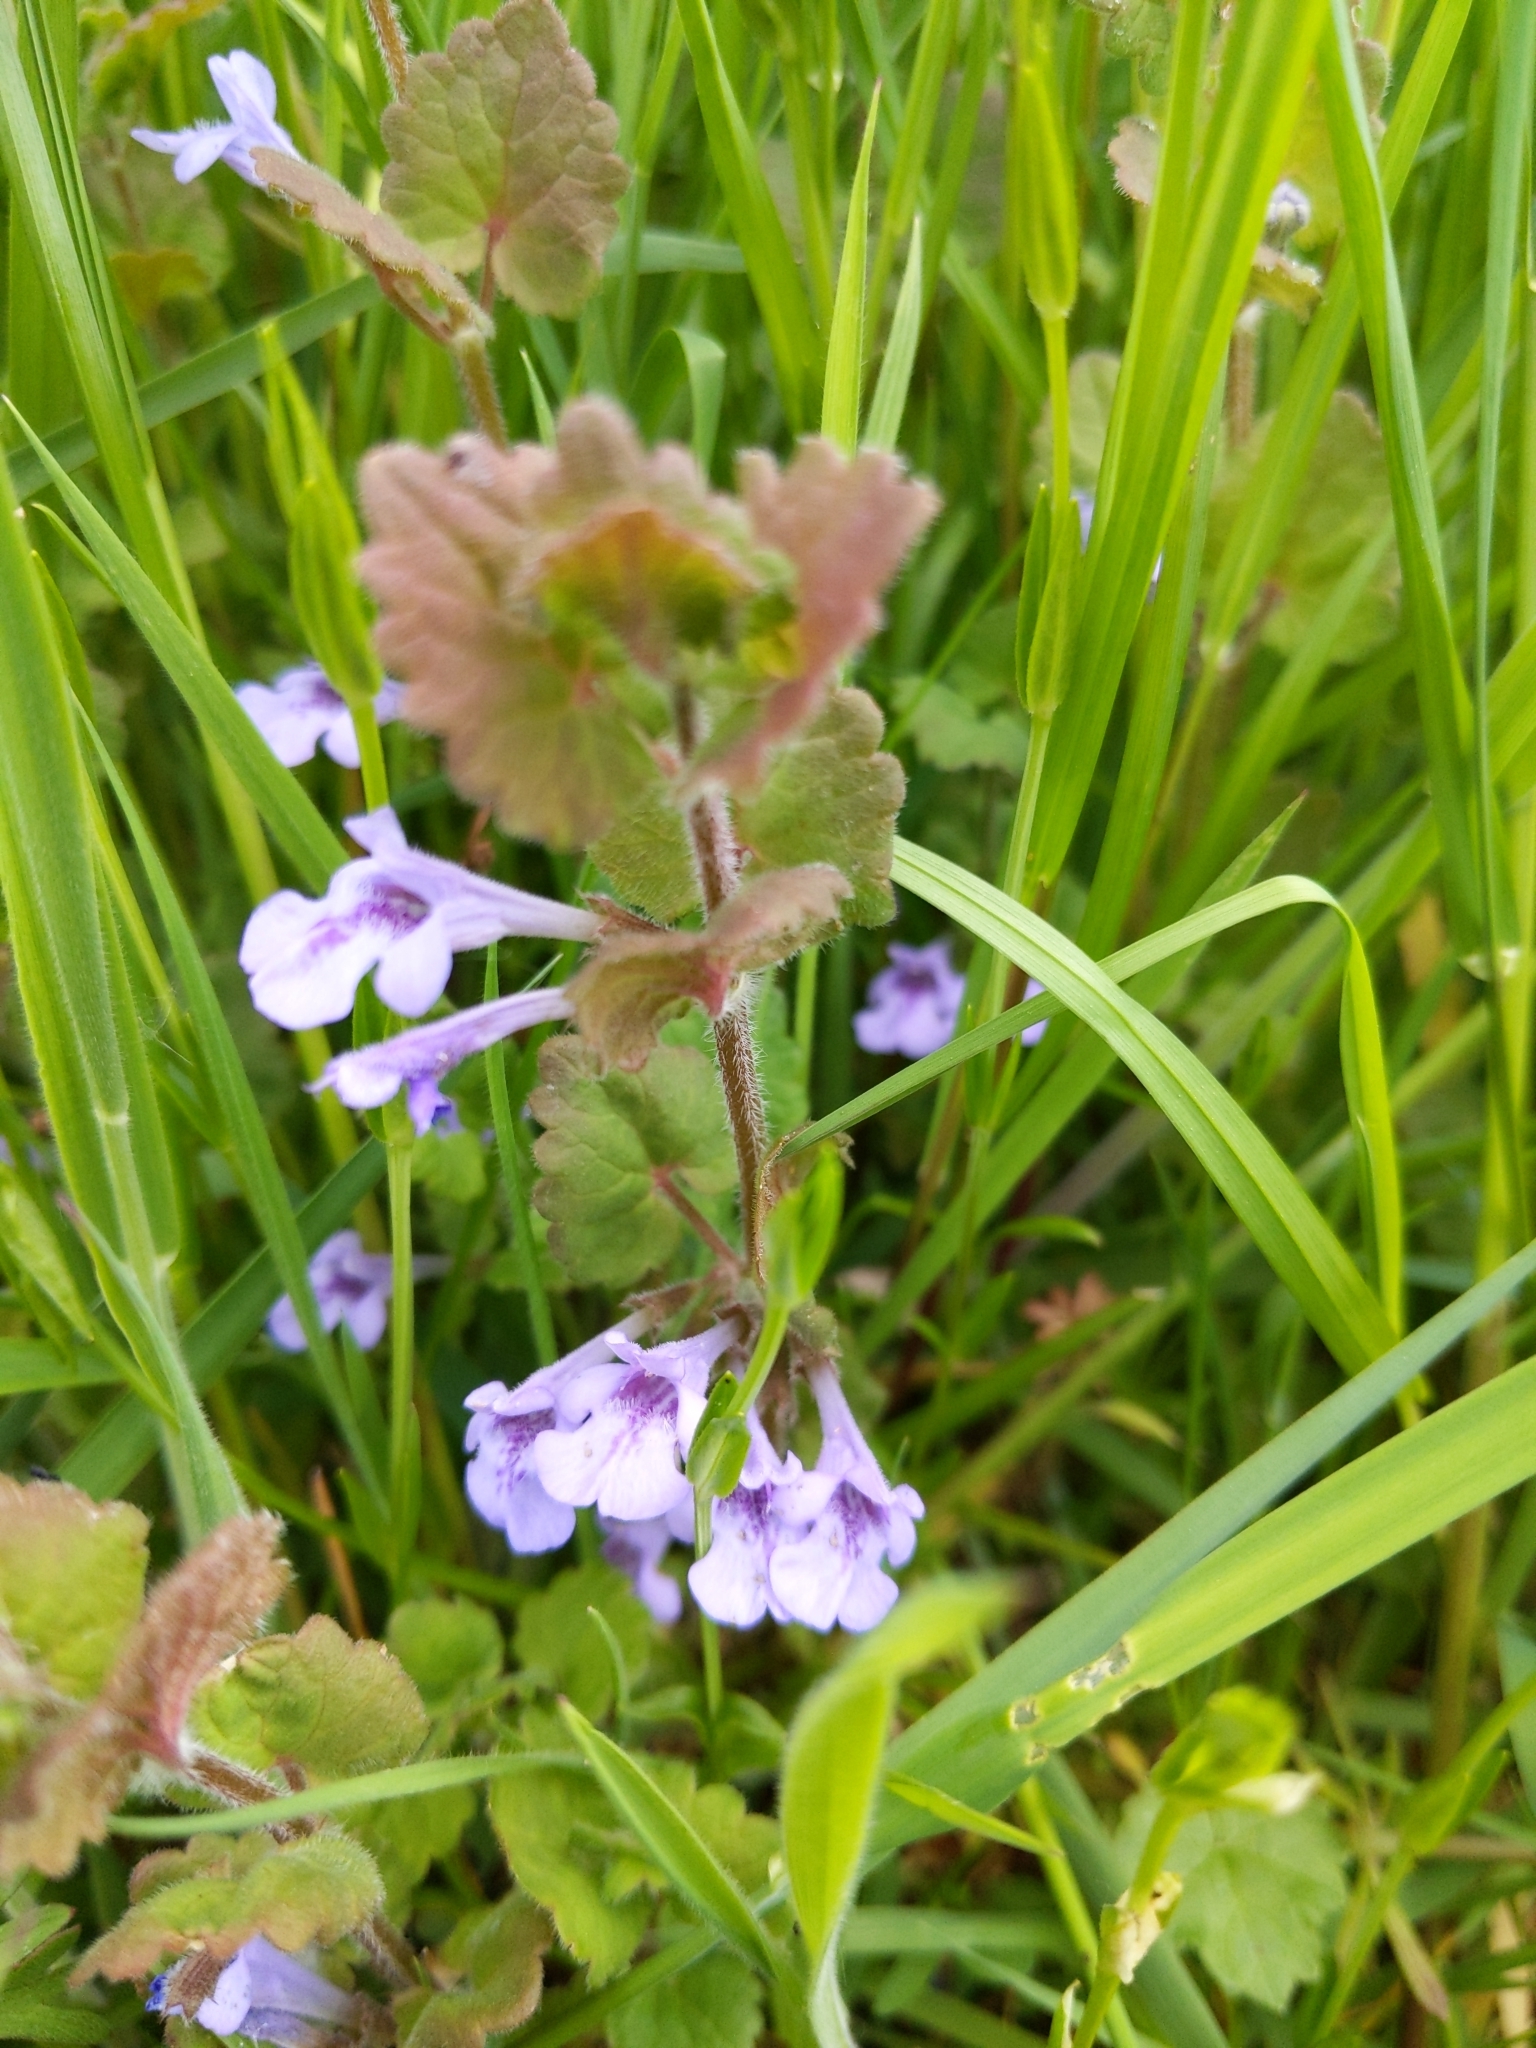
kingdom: Plantae
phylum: Tracheophyta
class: Magnoliopsida
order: Lamiales
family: Lamiaceae
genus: Glechoma
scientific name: Glechoma hederacea
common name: Ground ivy
